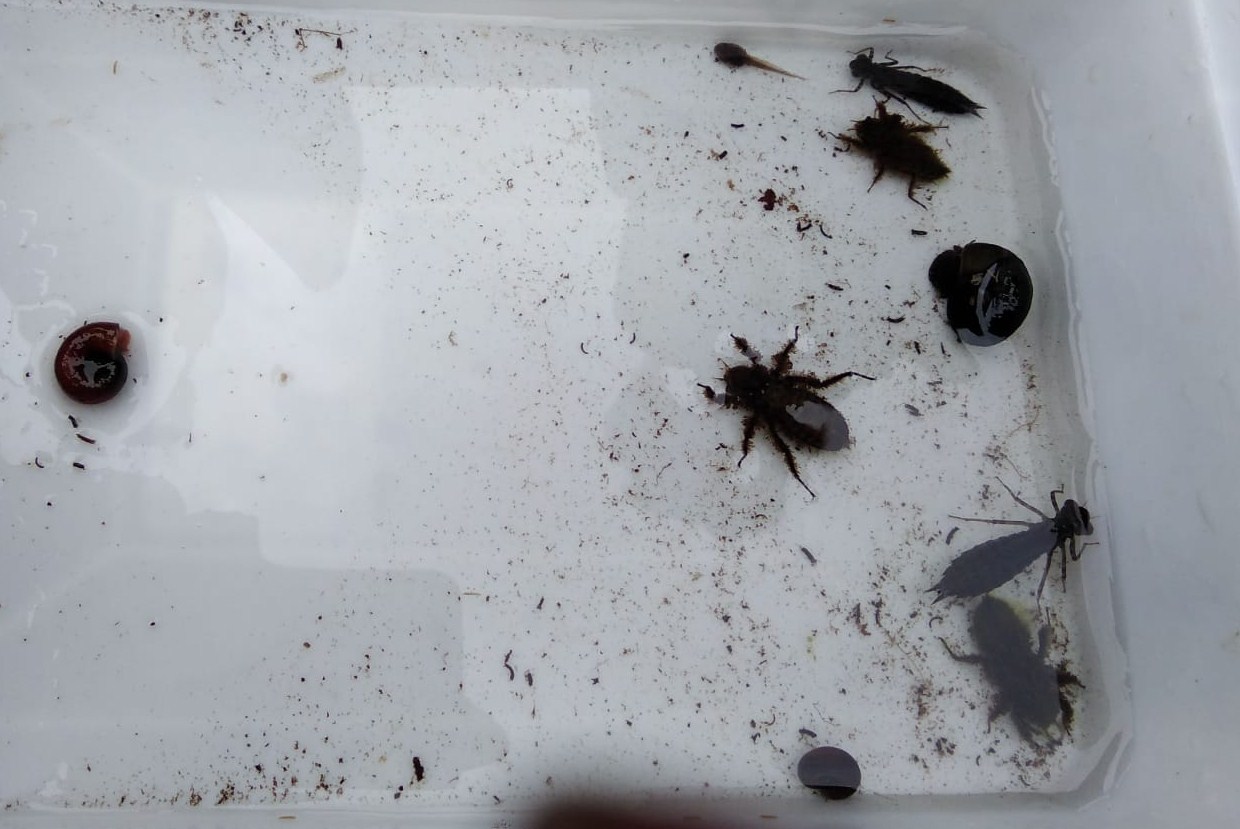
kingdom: Animalia
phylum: Mollusca
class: Gastropoda
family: Planorbidae
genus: Planorbarius
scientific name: Planorbarius corneus
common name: Great ramshorn
